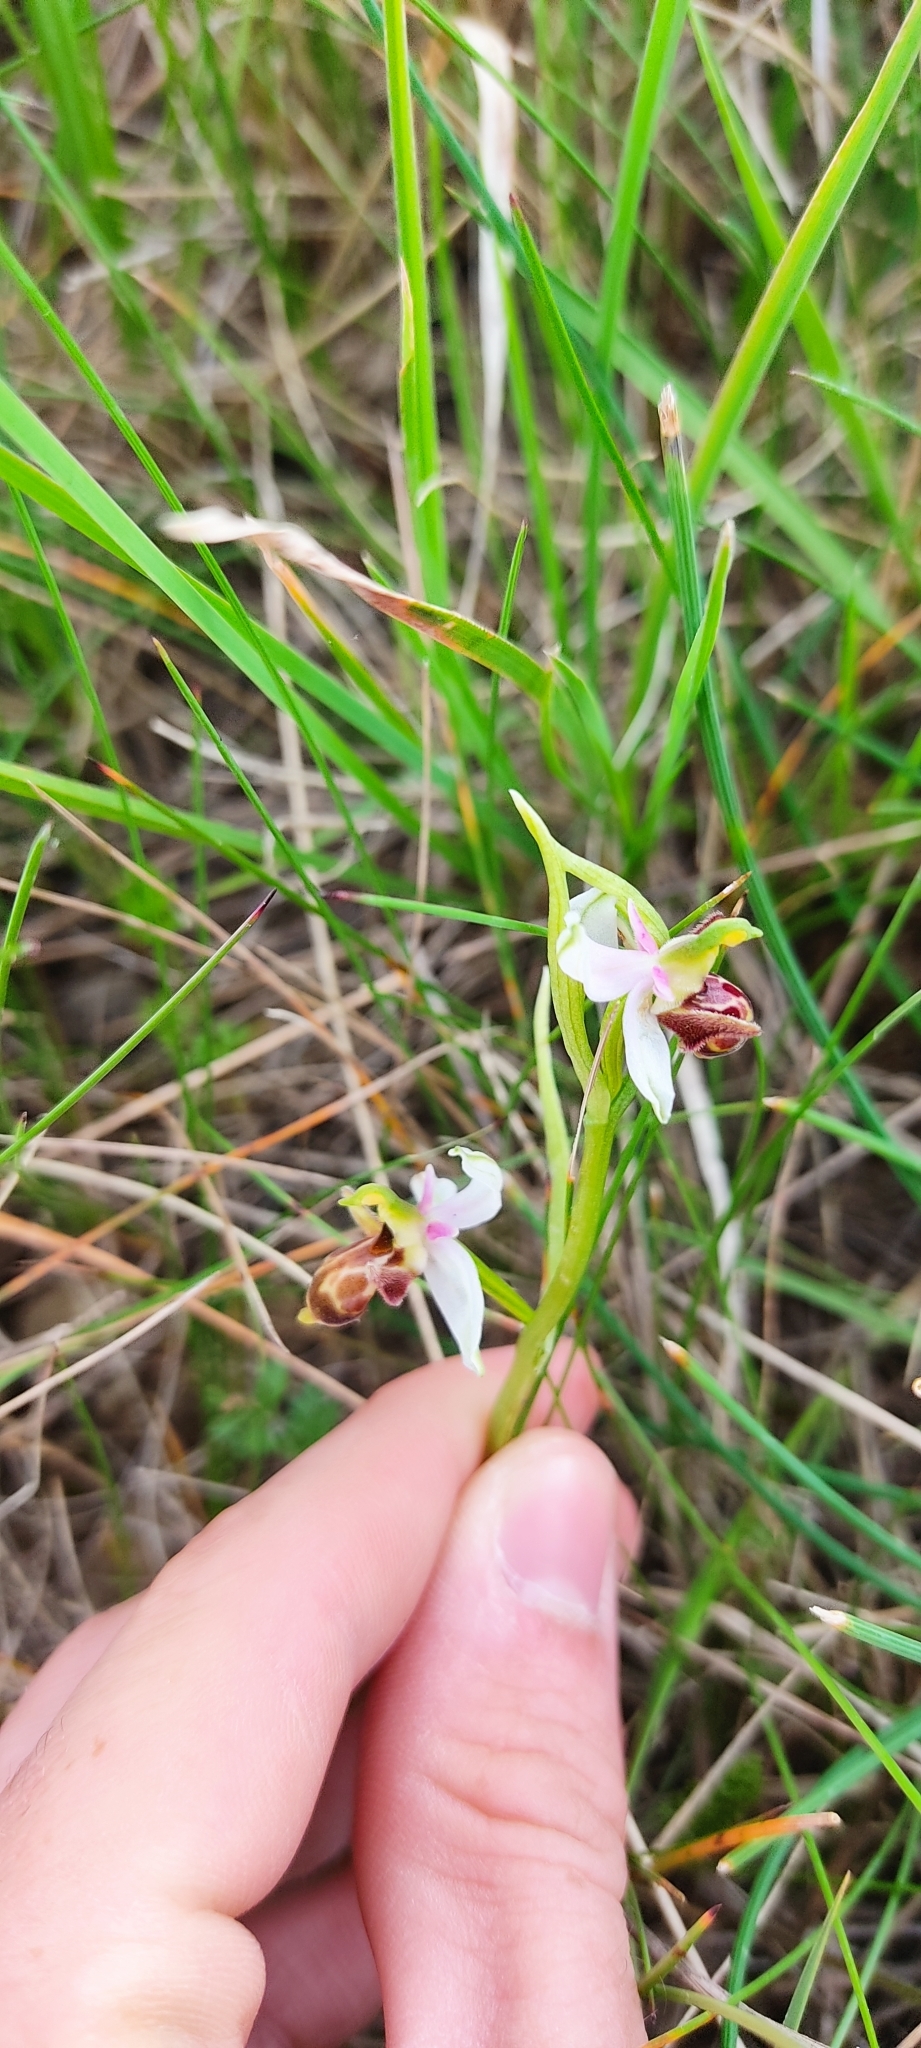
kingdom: Plantae
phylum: Tracheophyta
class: Liliopsida
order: Asparagales
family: Orchidaceae
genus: Ophrys
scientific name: Ophrys scolopax
